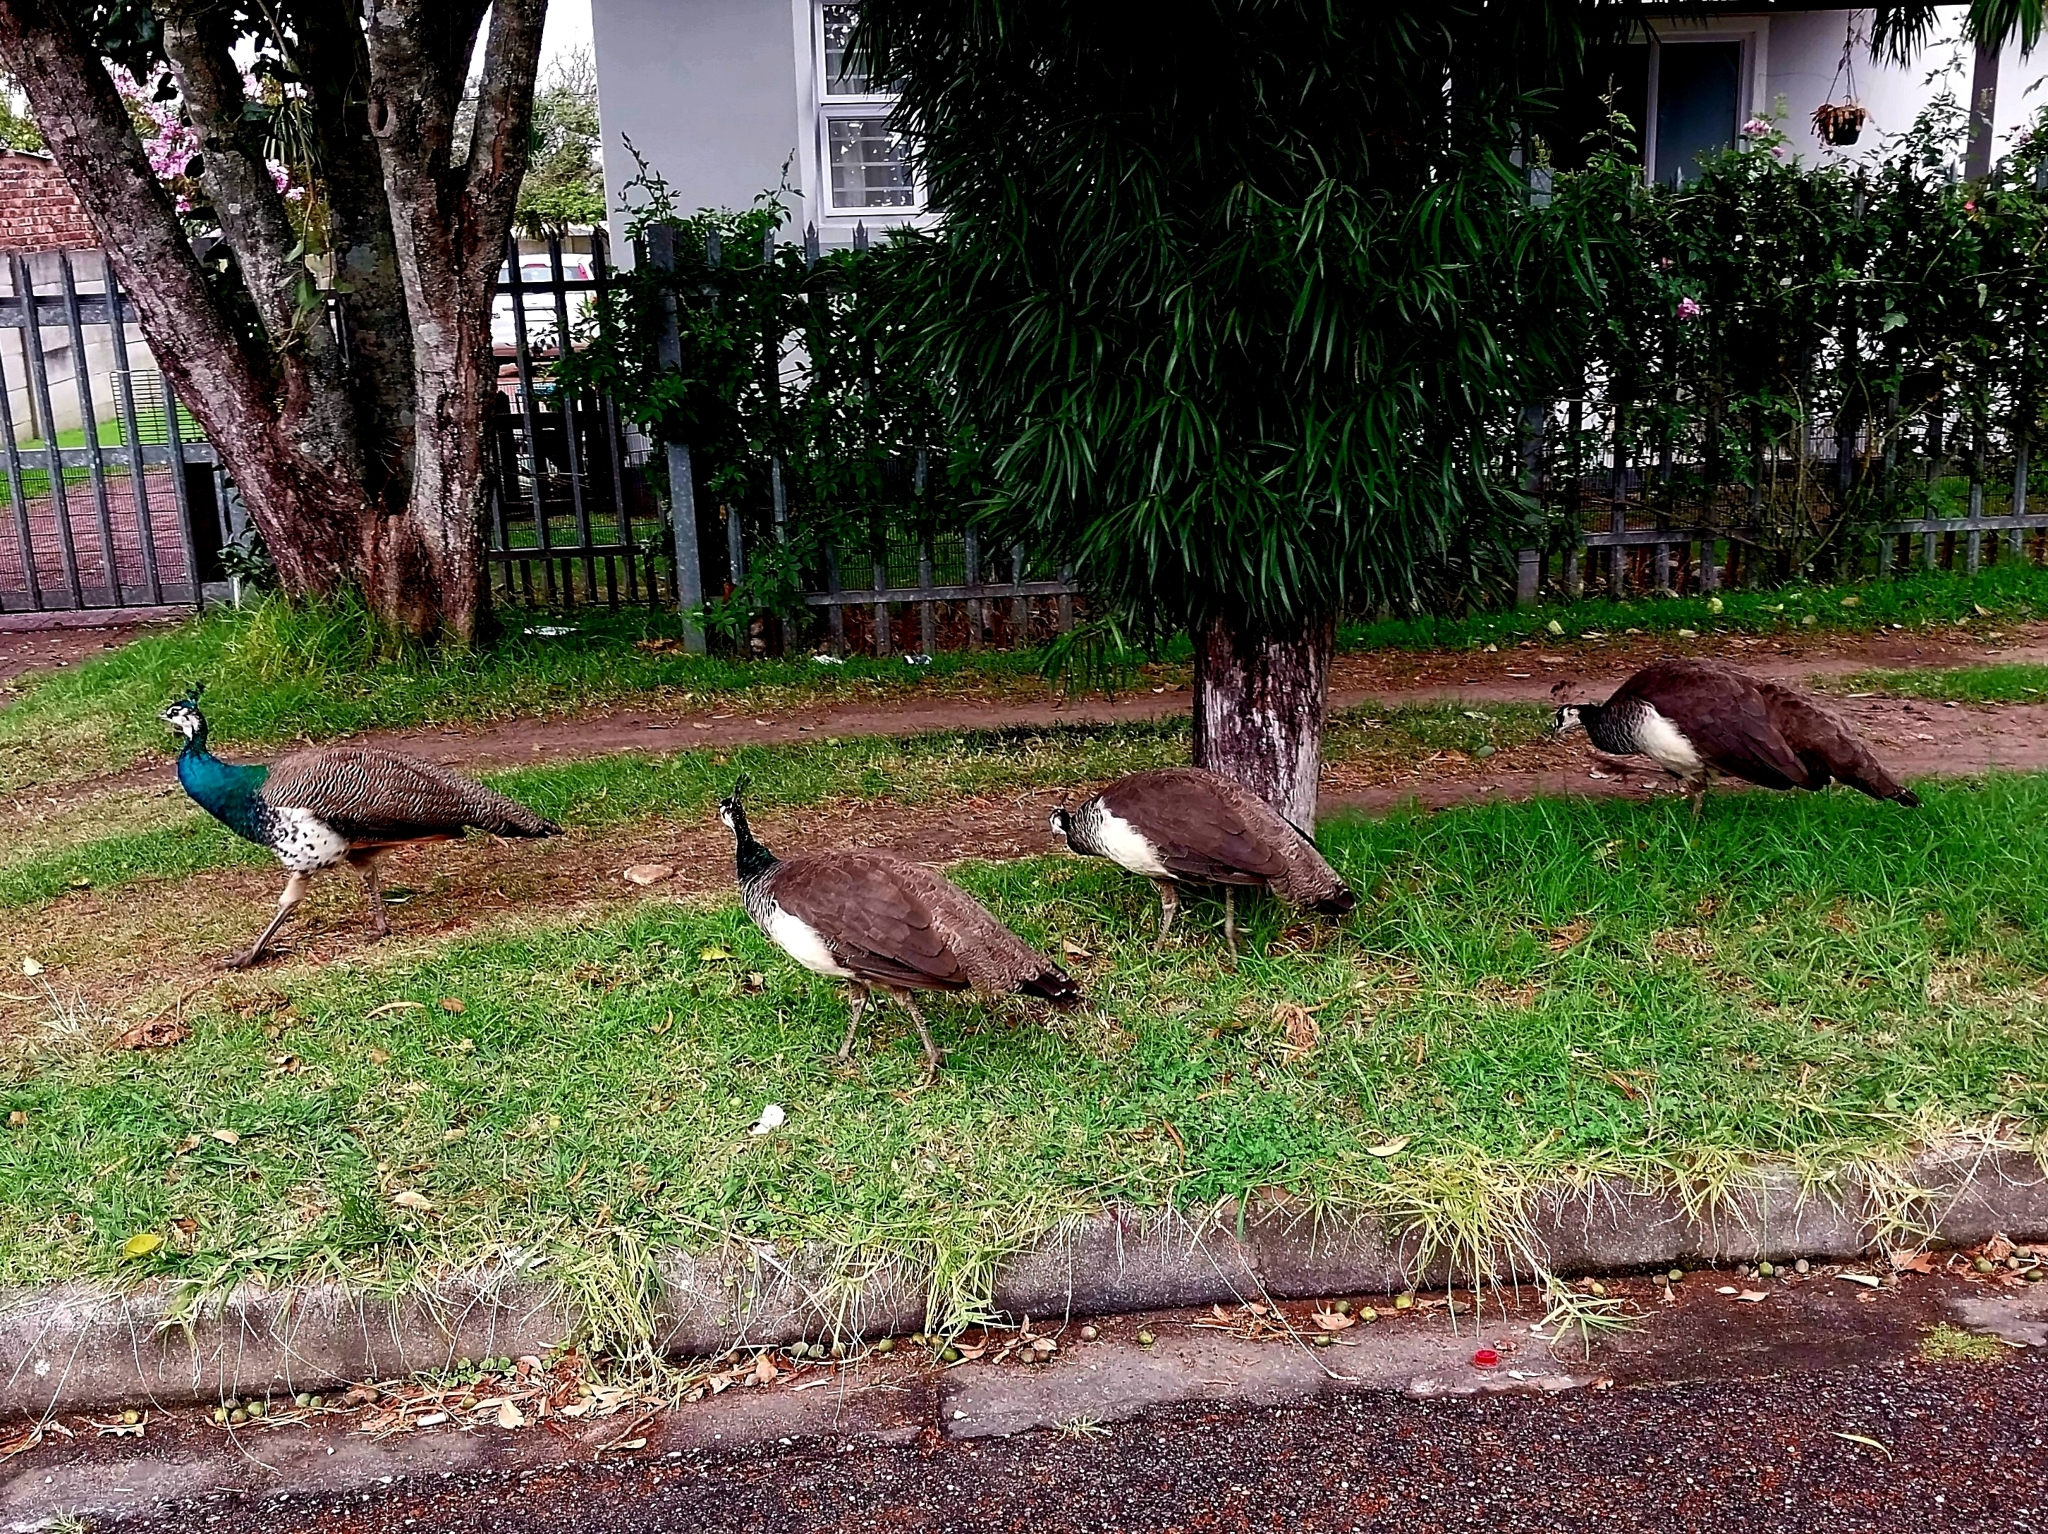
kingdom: Animalia
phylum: Chordata
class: Aves
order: Galliformes
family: Phasianidae
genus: Pavo
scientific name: Pavo cristatus
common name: Indian peafowl
